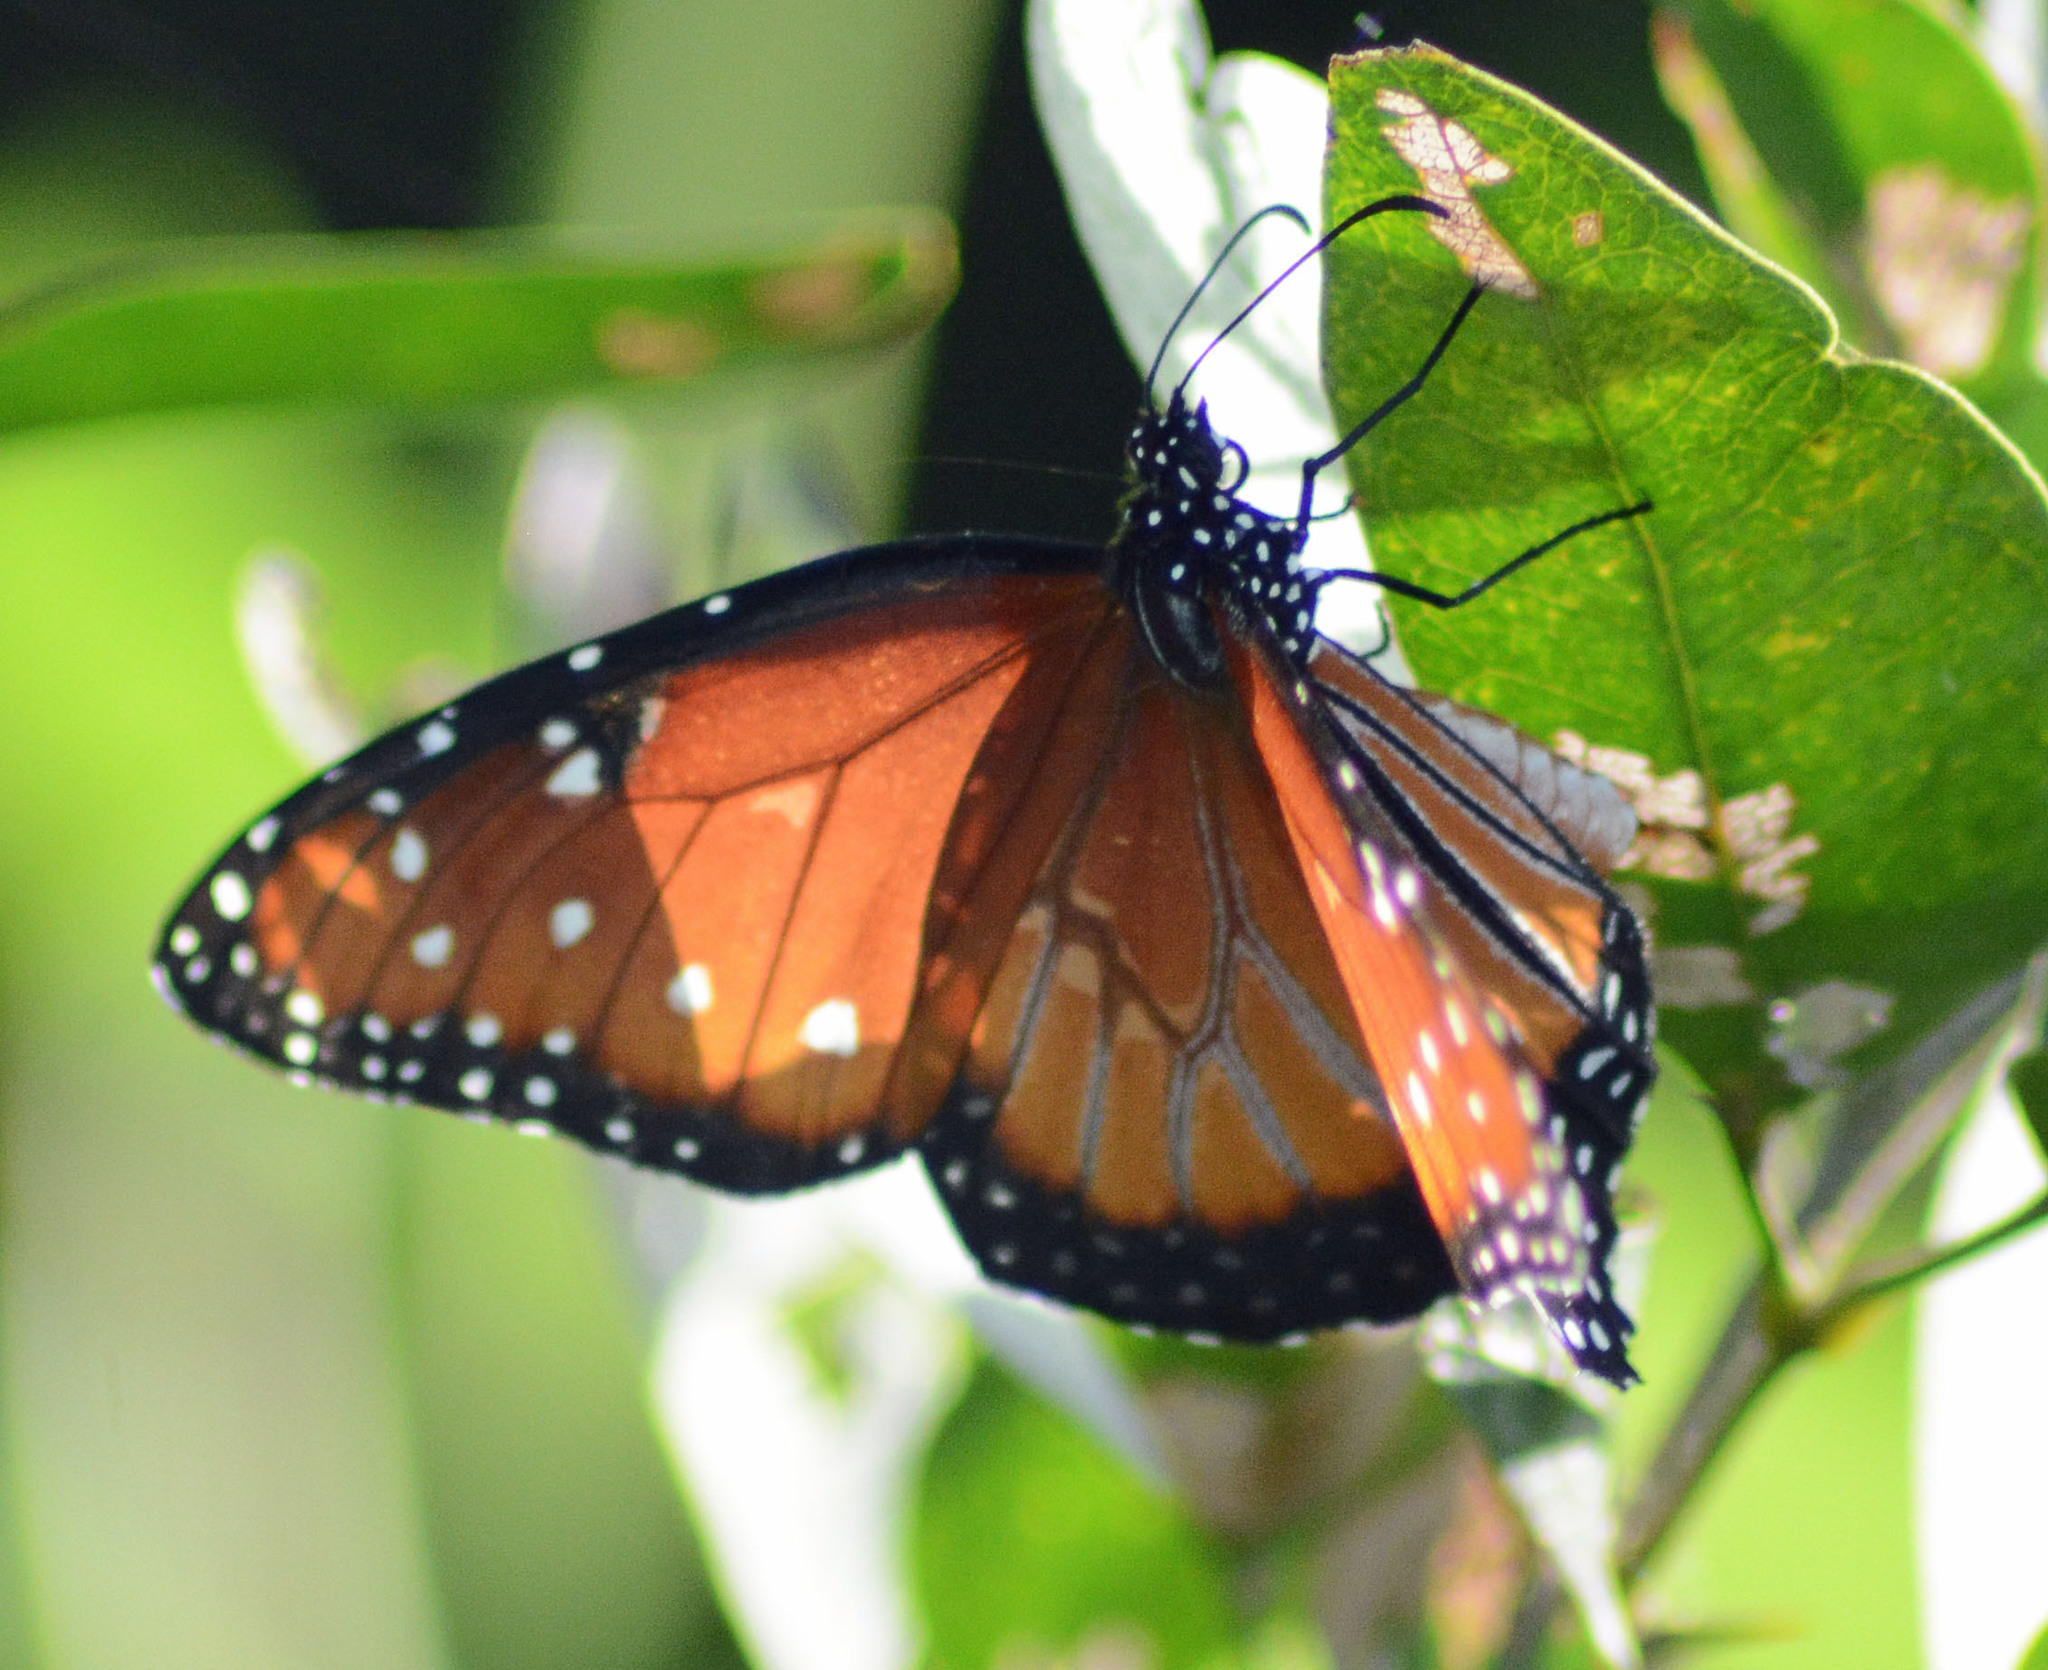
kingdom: Animalia
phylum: Arthropoda
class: Insecta
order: Lepidoptera
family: Nymphalidae
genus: Danaus
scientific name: Danaus gilippus
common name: Queen
